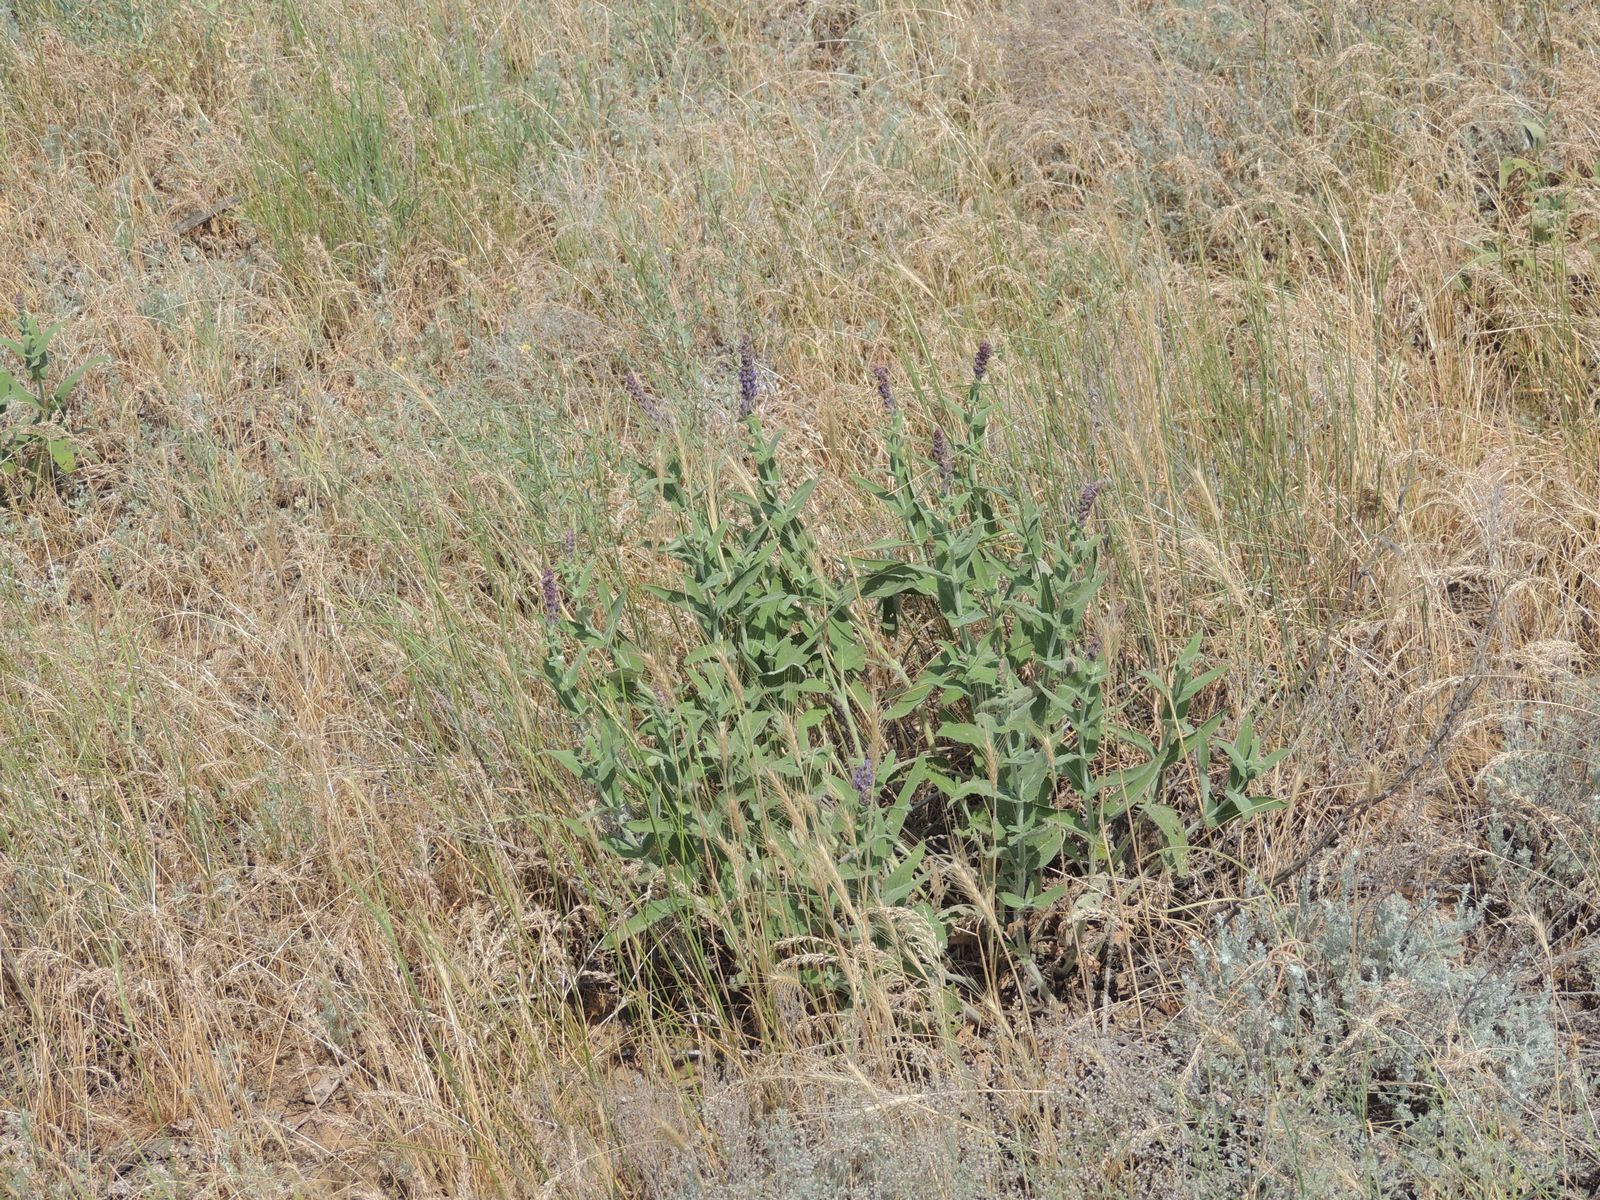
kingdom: Plantae
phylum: Tracheophyta
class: Magnoliopsida
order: Lamiales
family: Lamiaceae
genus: Salvia
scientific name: Salvia nemorosa
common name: Balkan clary
